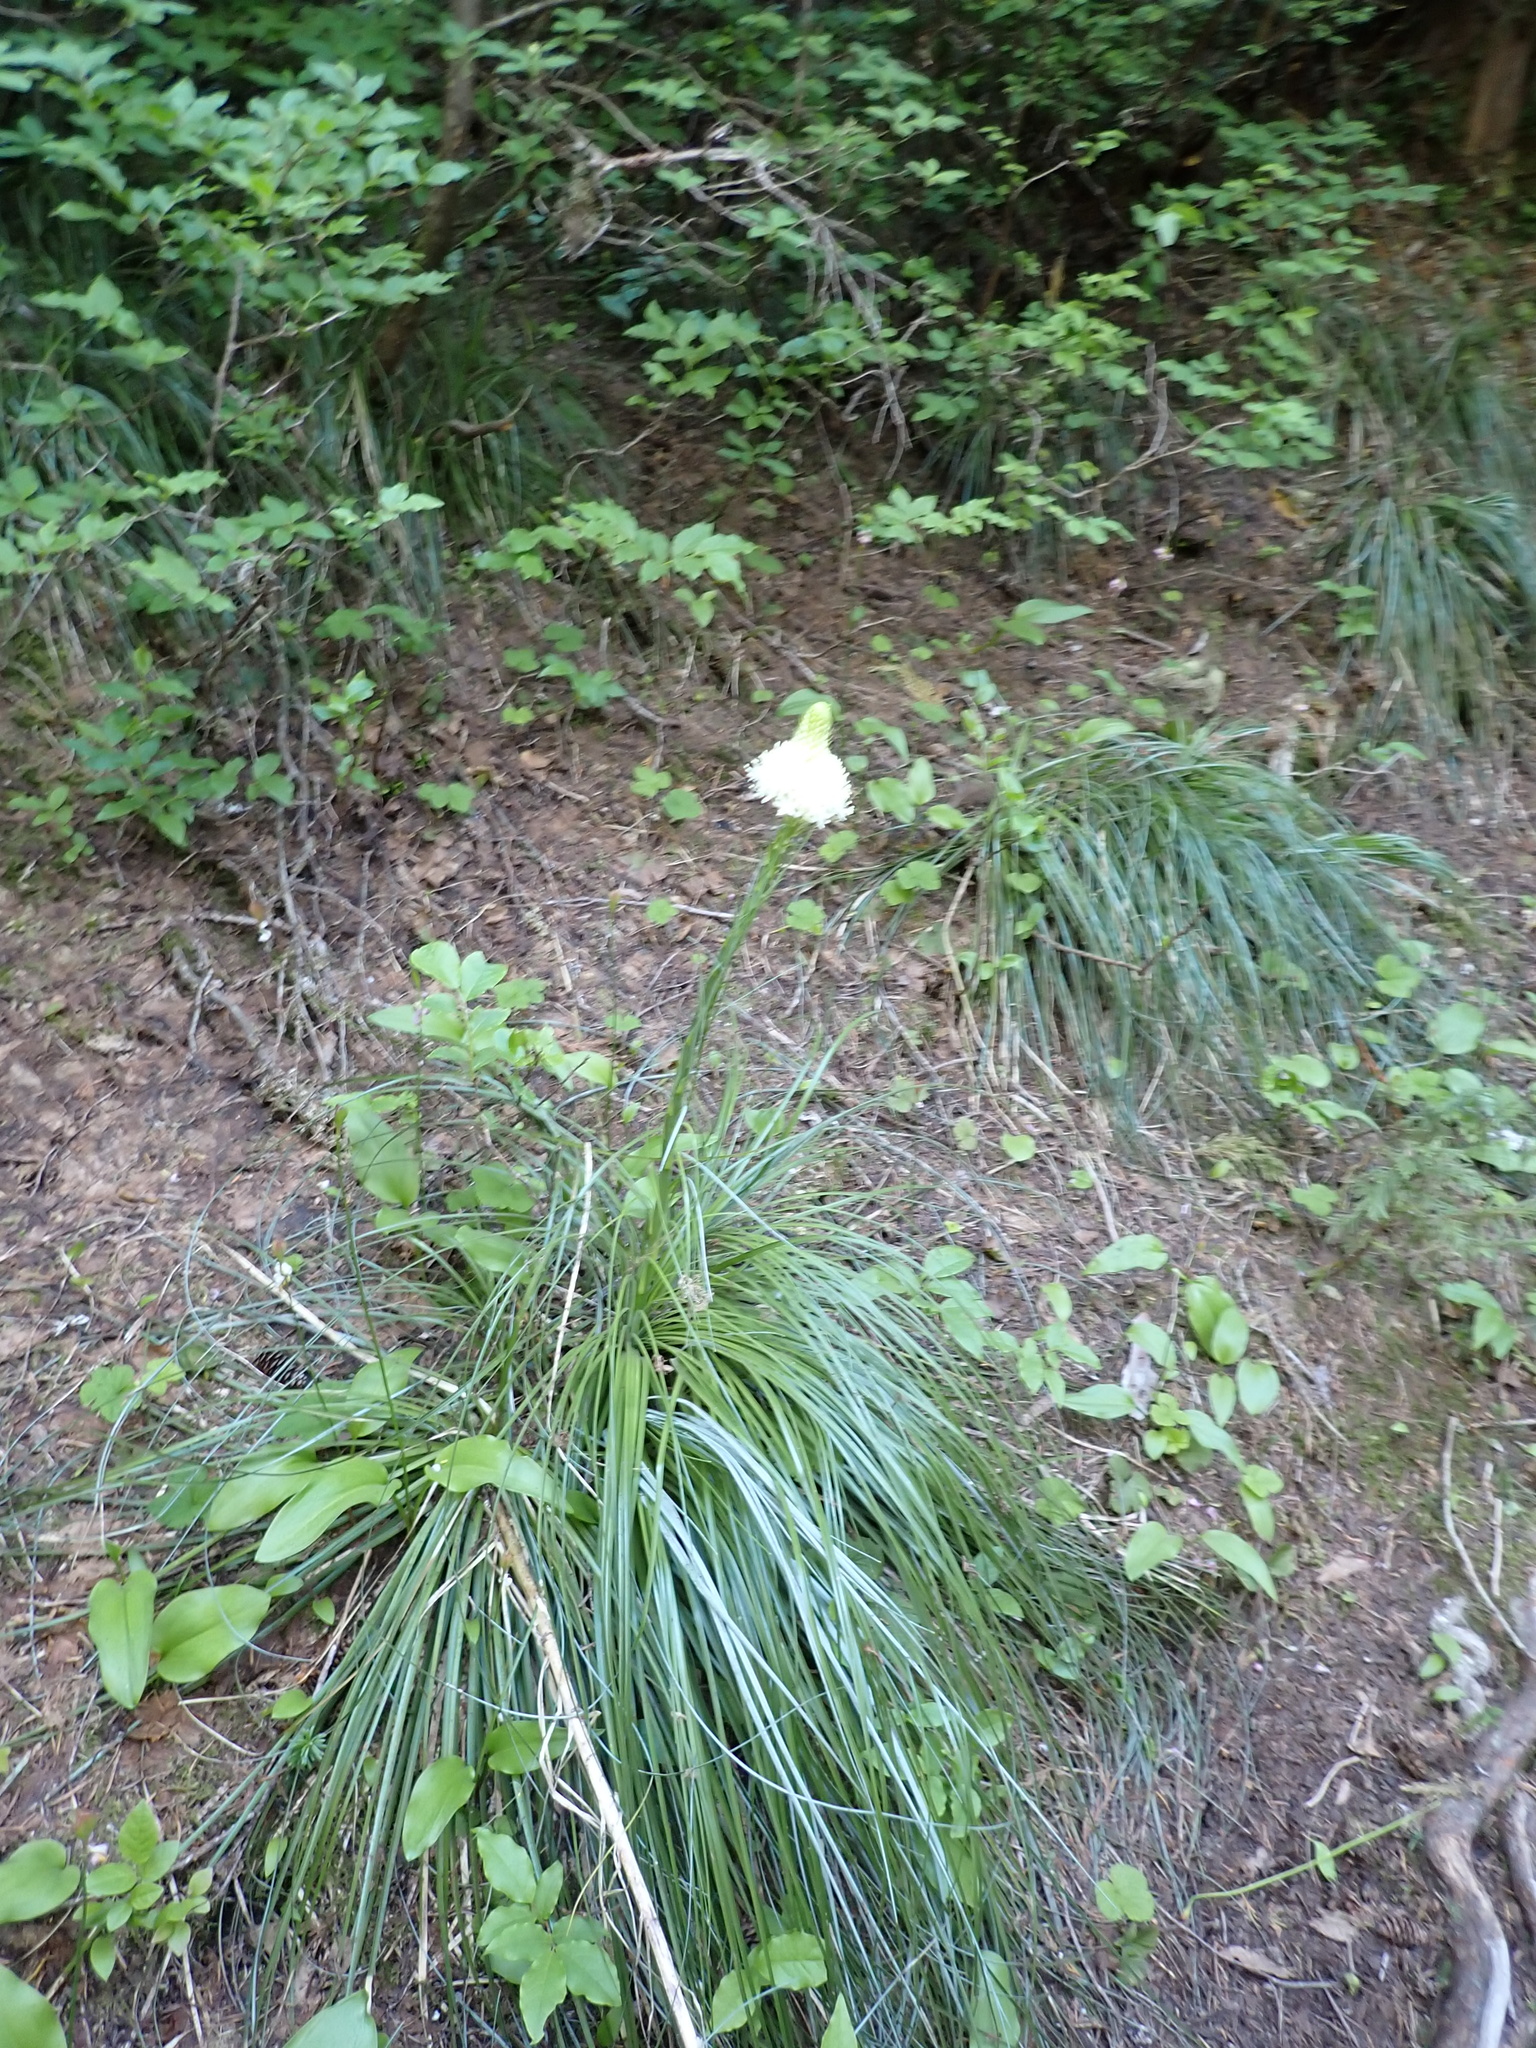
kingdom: Plantae
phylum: Tracheophyta
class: Liliopsida
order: Liliales
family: Melanthiaceae
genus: Xerophyllum
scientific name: Xerophyllum tenax
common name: Bear-grass
